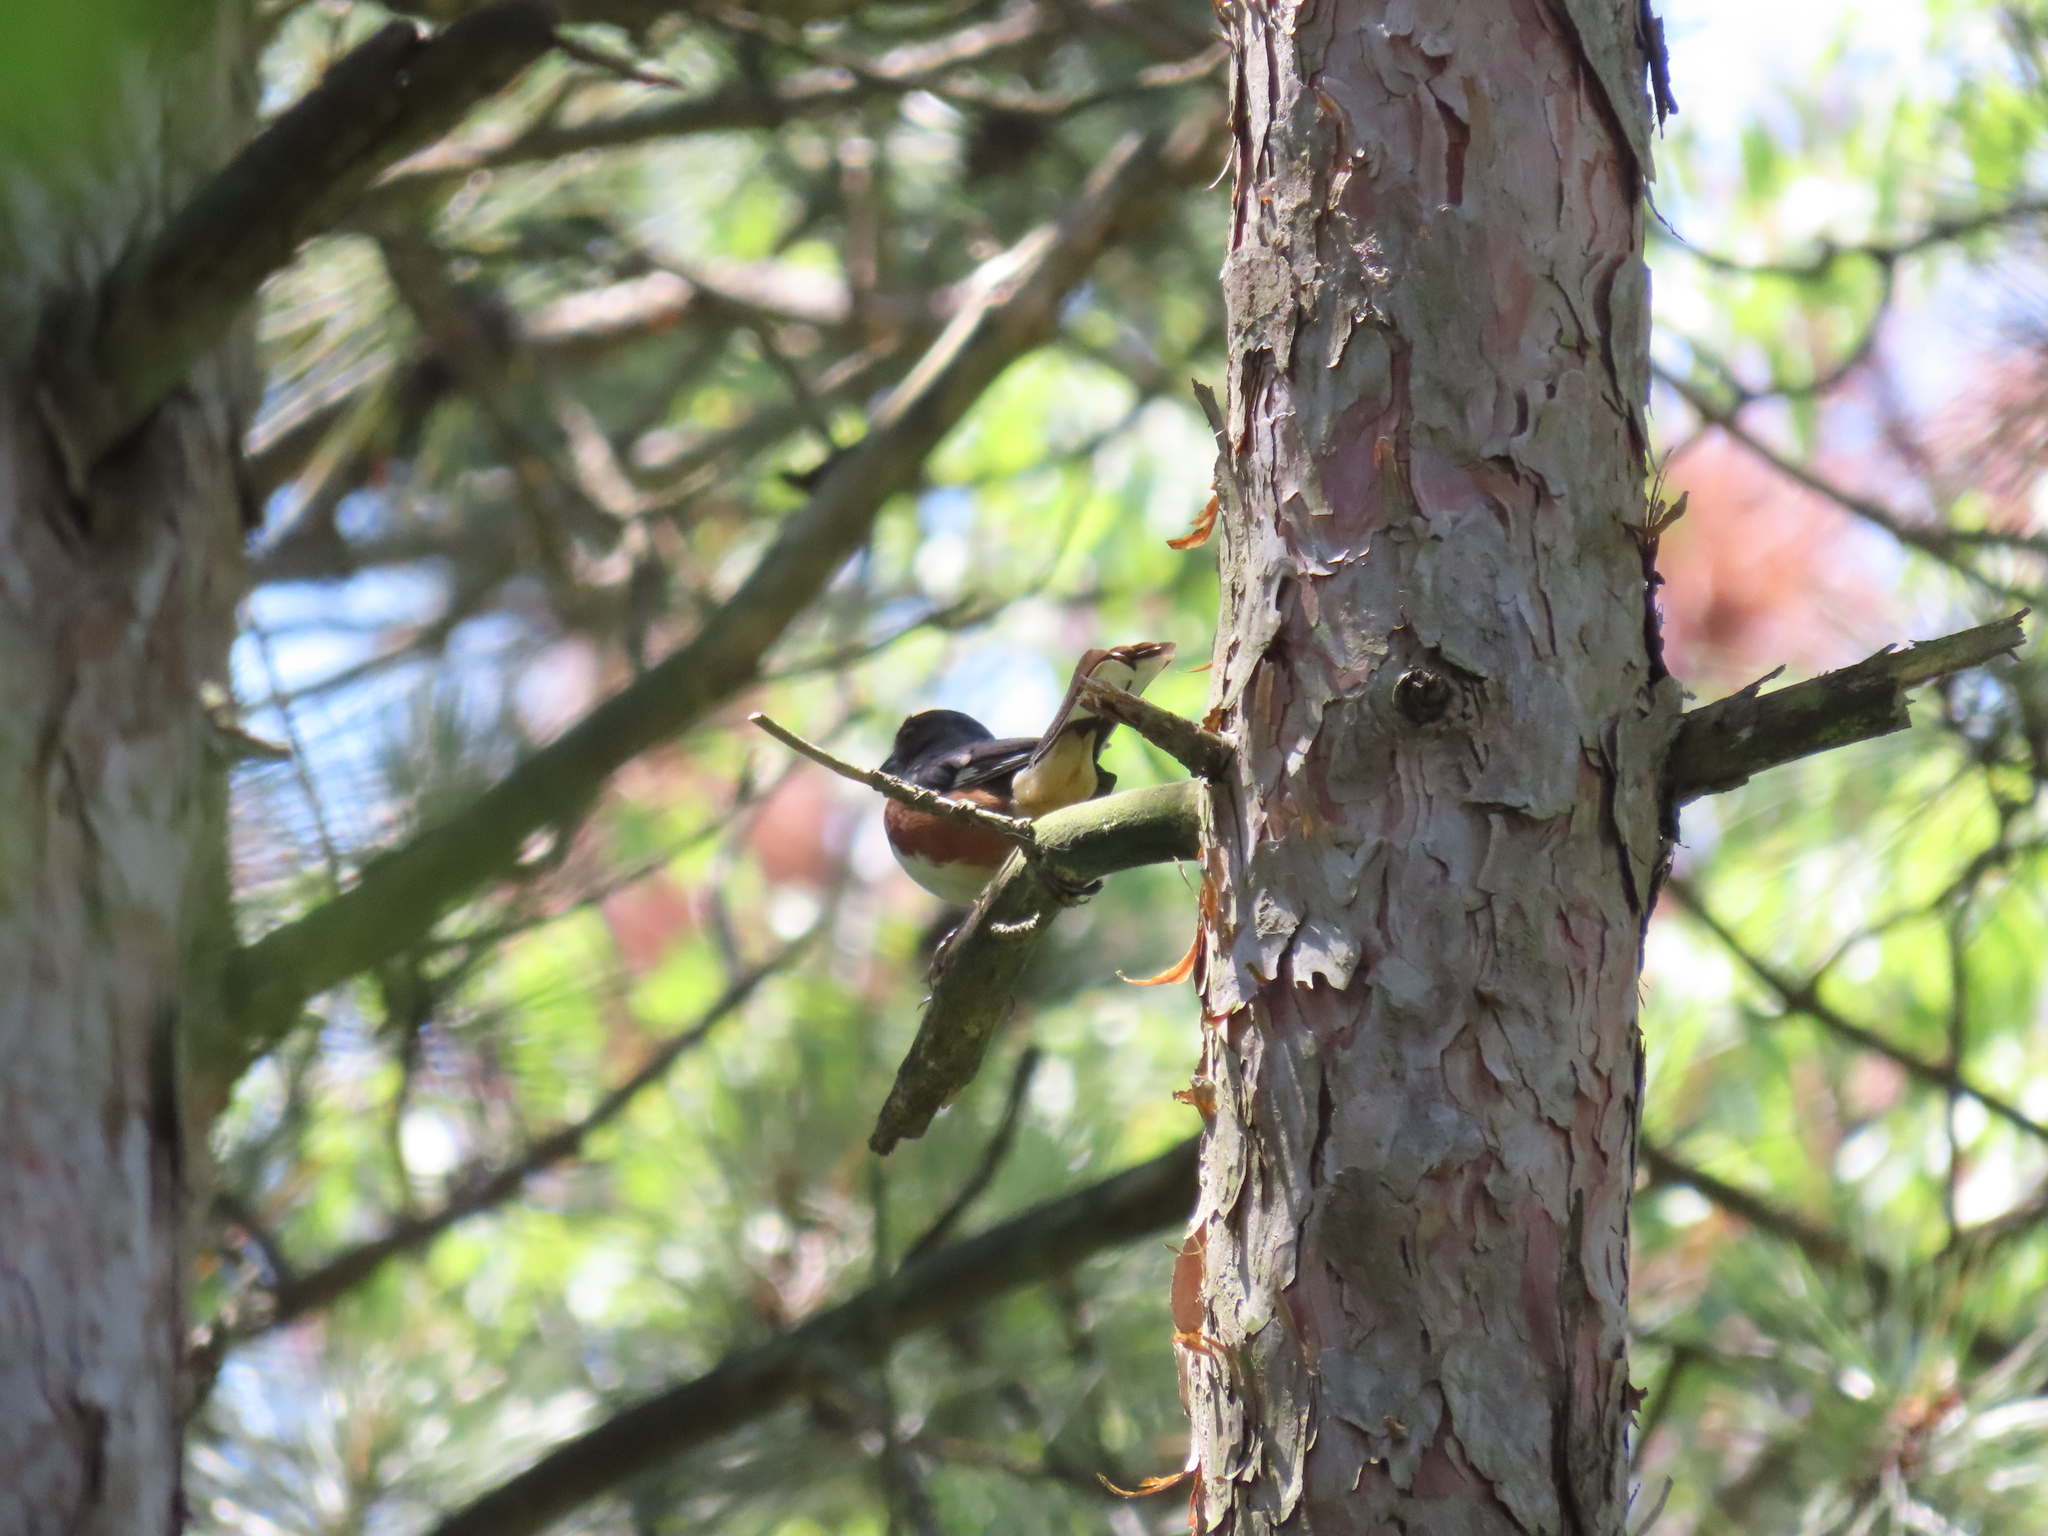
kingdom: Animalia
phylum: Chordata
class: Aves
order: Passeriformes
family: Passerellidae
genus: Pipilo
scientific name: Pipilo erythrophthalmus
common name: Eastern towhee
